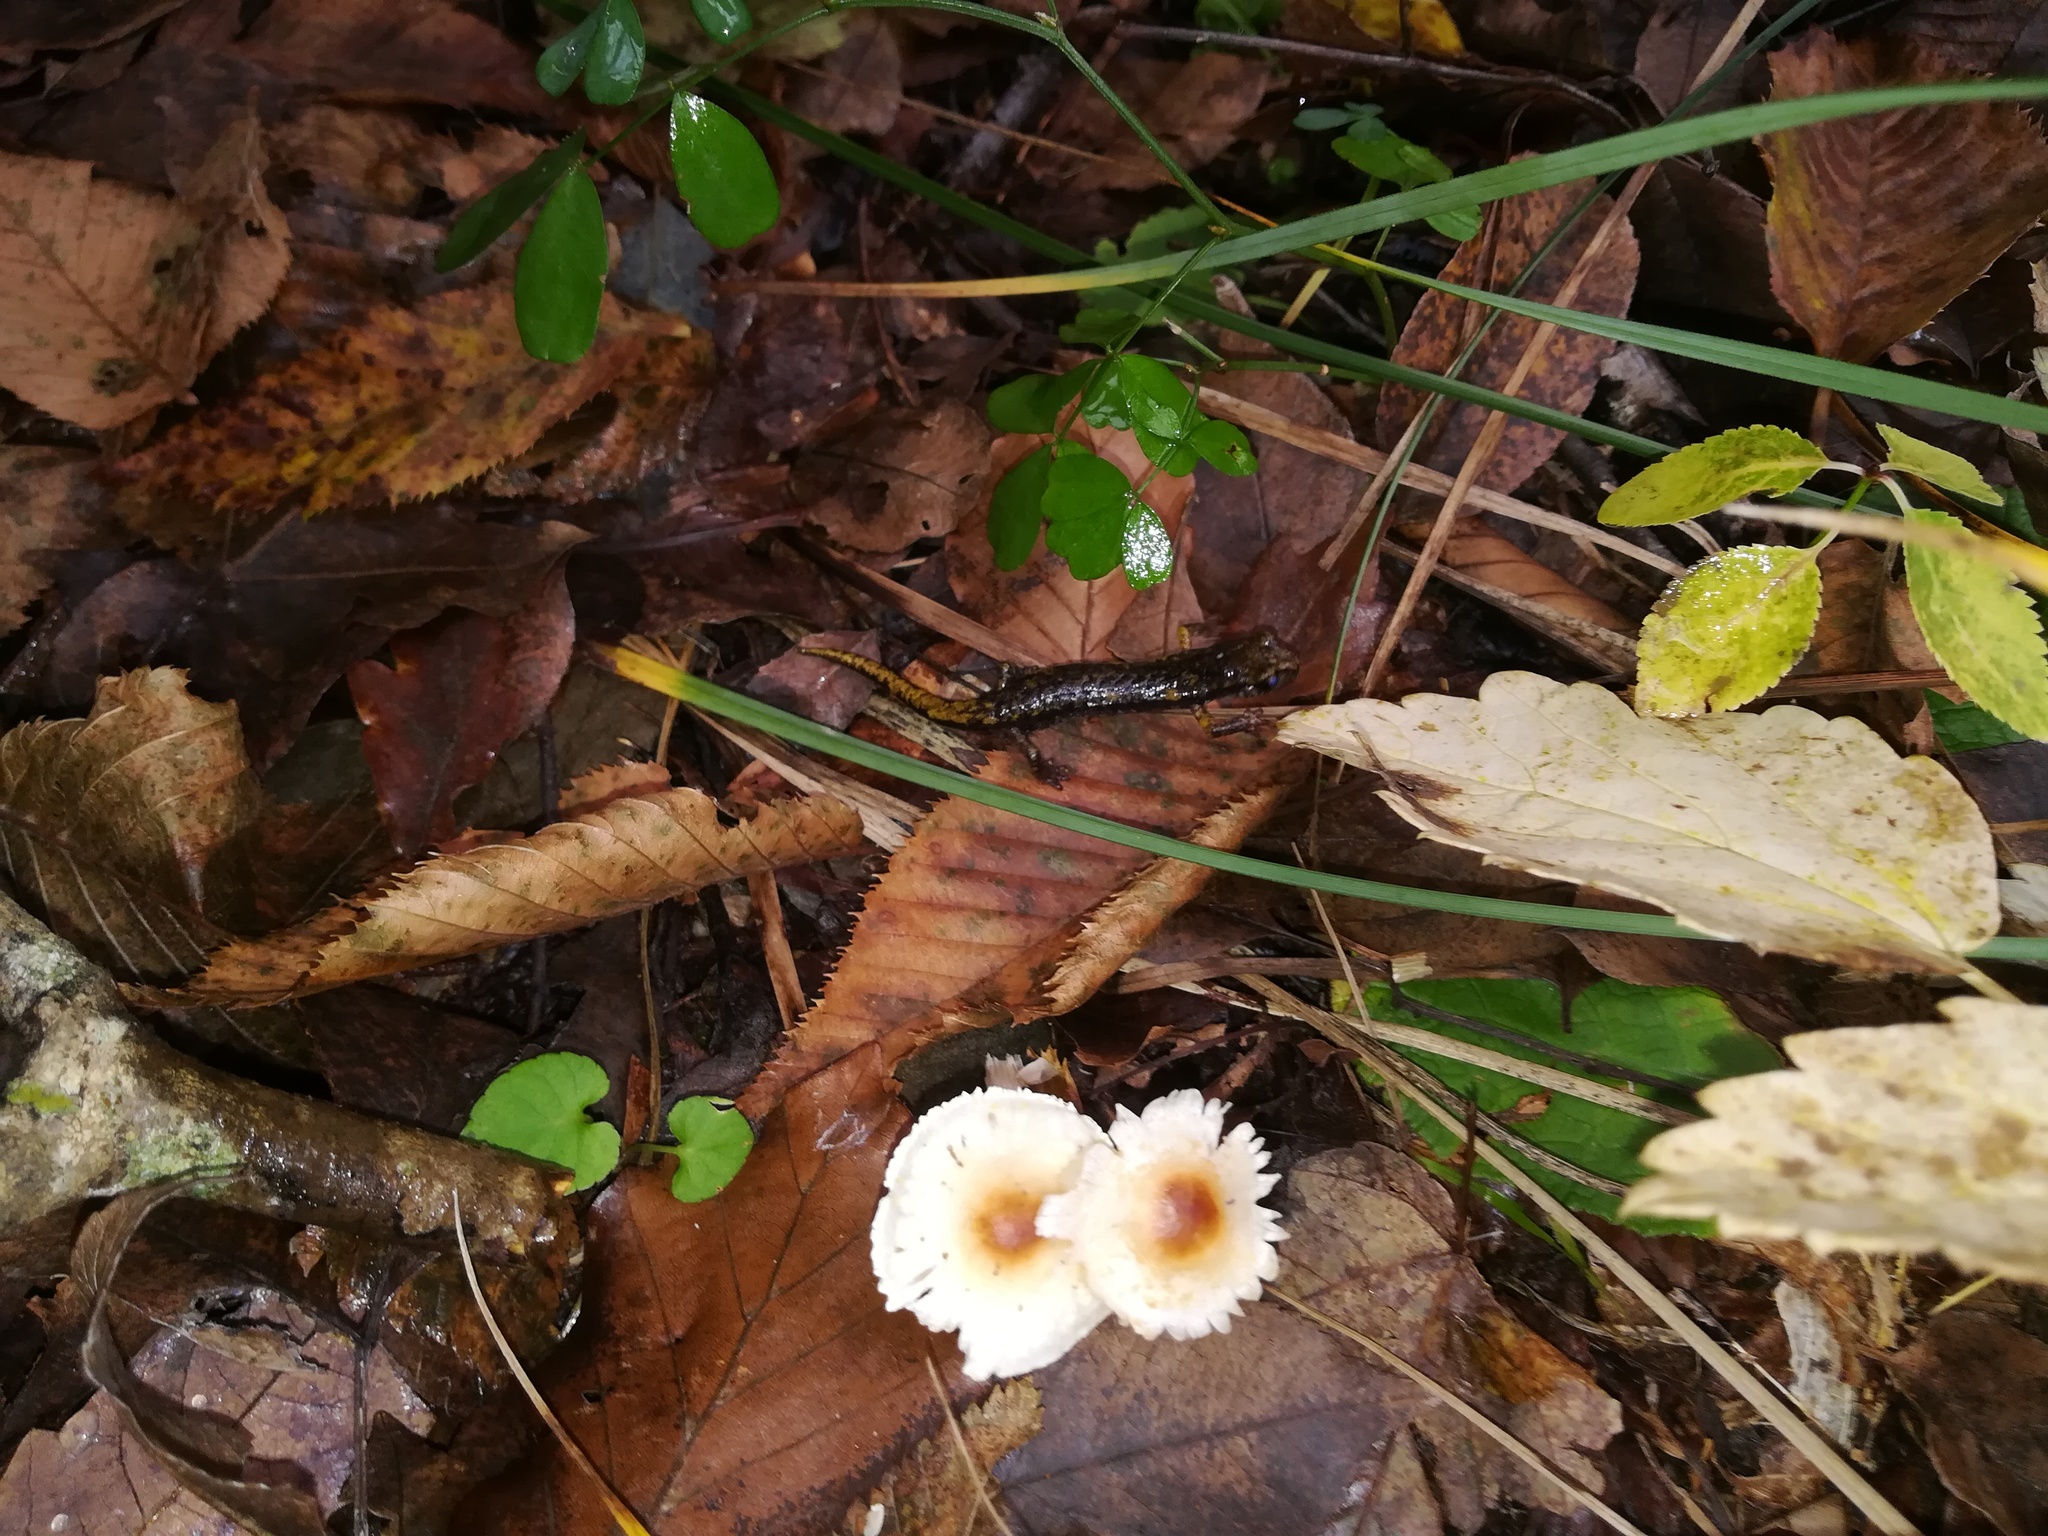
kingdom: Animalia
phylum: Chordata
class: Amphibia
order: Caudata
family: Plethodontidae
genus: Speleomantes
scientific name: Speleomantes strinatii
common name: French cave salamander
